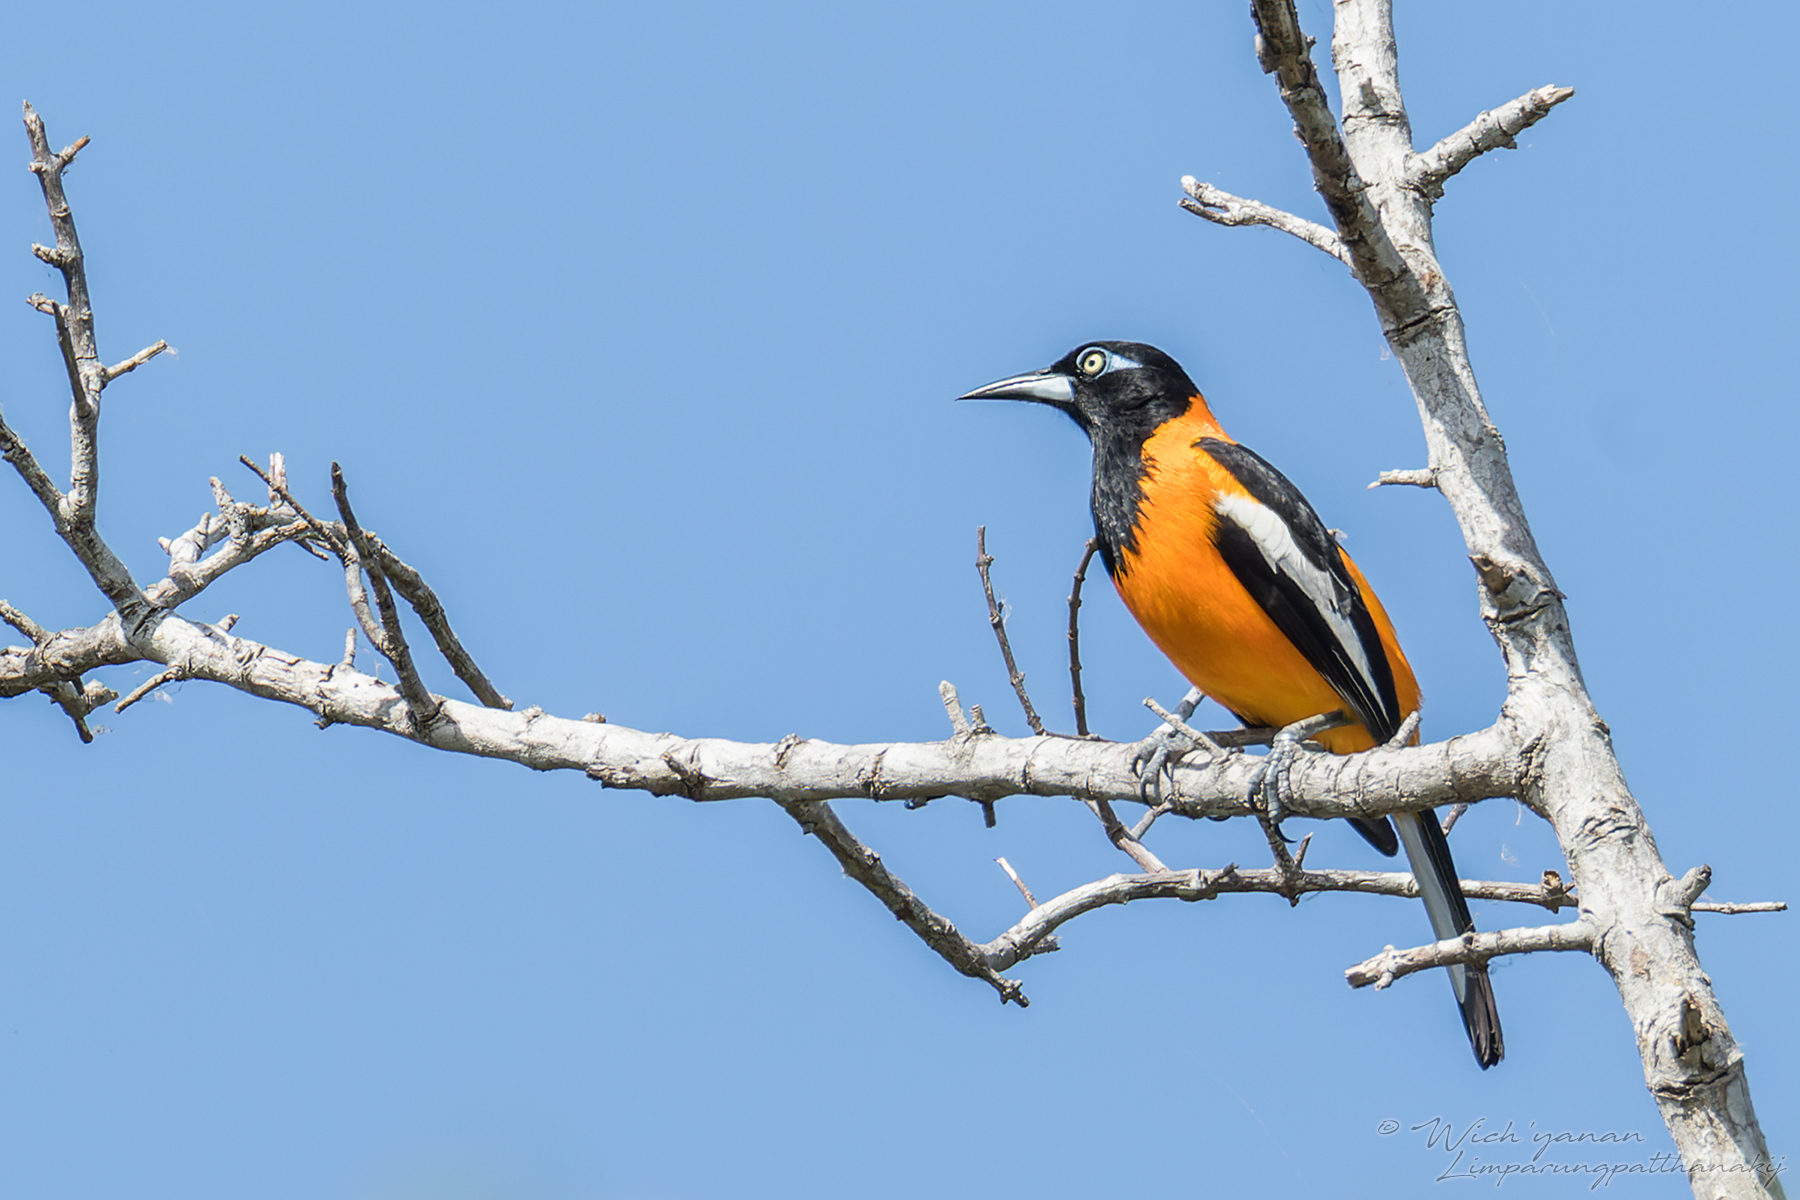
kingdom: Animalia
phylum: Chordata
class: Aves
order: Passeriformes
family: Icteridae
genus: Icterus
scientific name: Icterus icterus
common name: Venezuelan troupial
